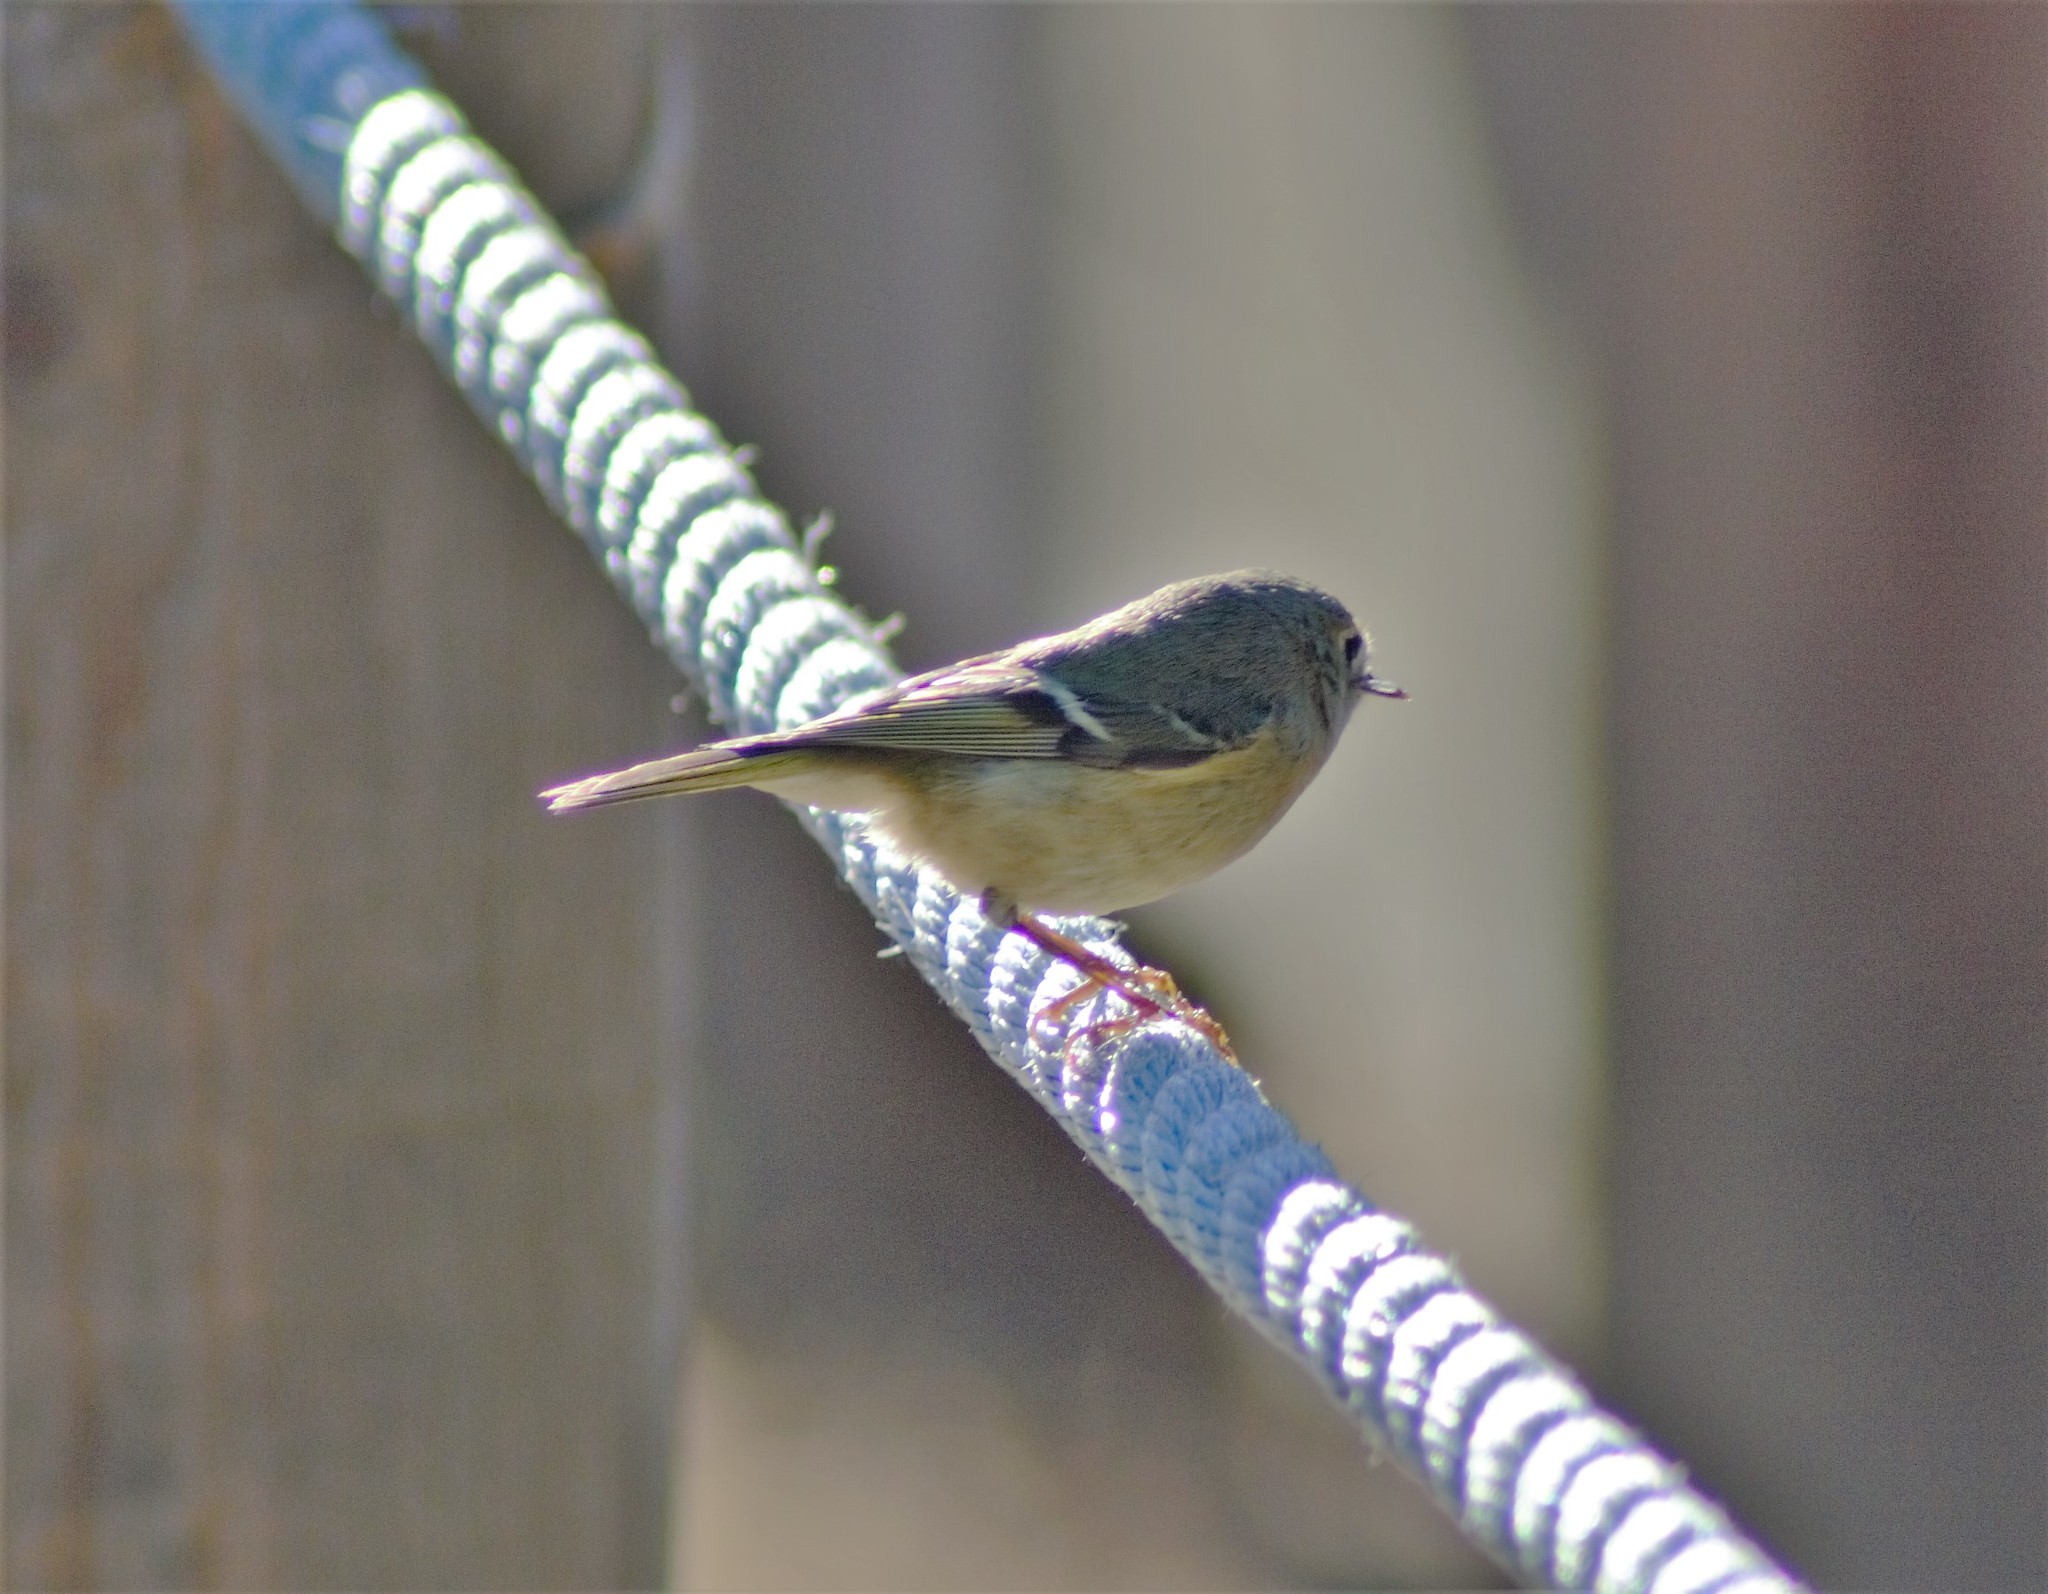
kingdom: Animalia
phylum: Chordata
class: Aves
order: Passeriformes
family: Regulidae
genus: Regulus
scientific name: Regulus calendula
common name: Ruby-crowned kinglet
